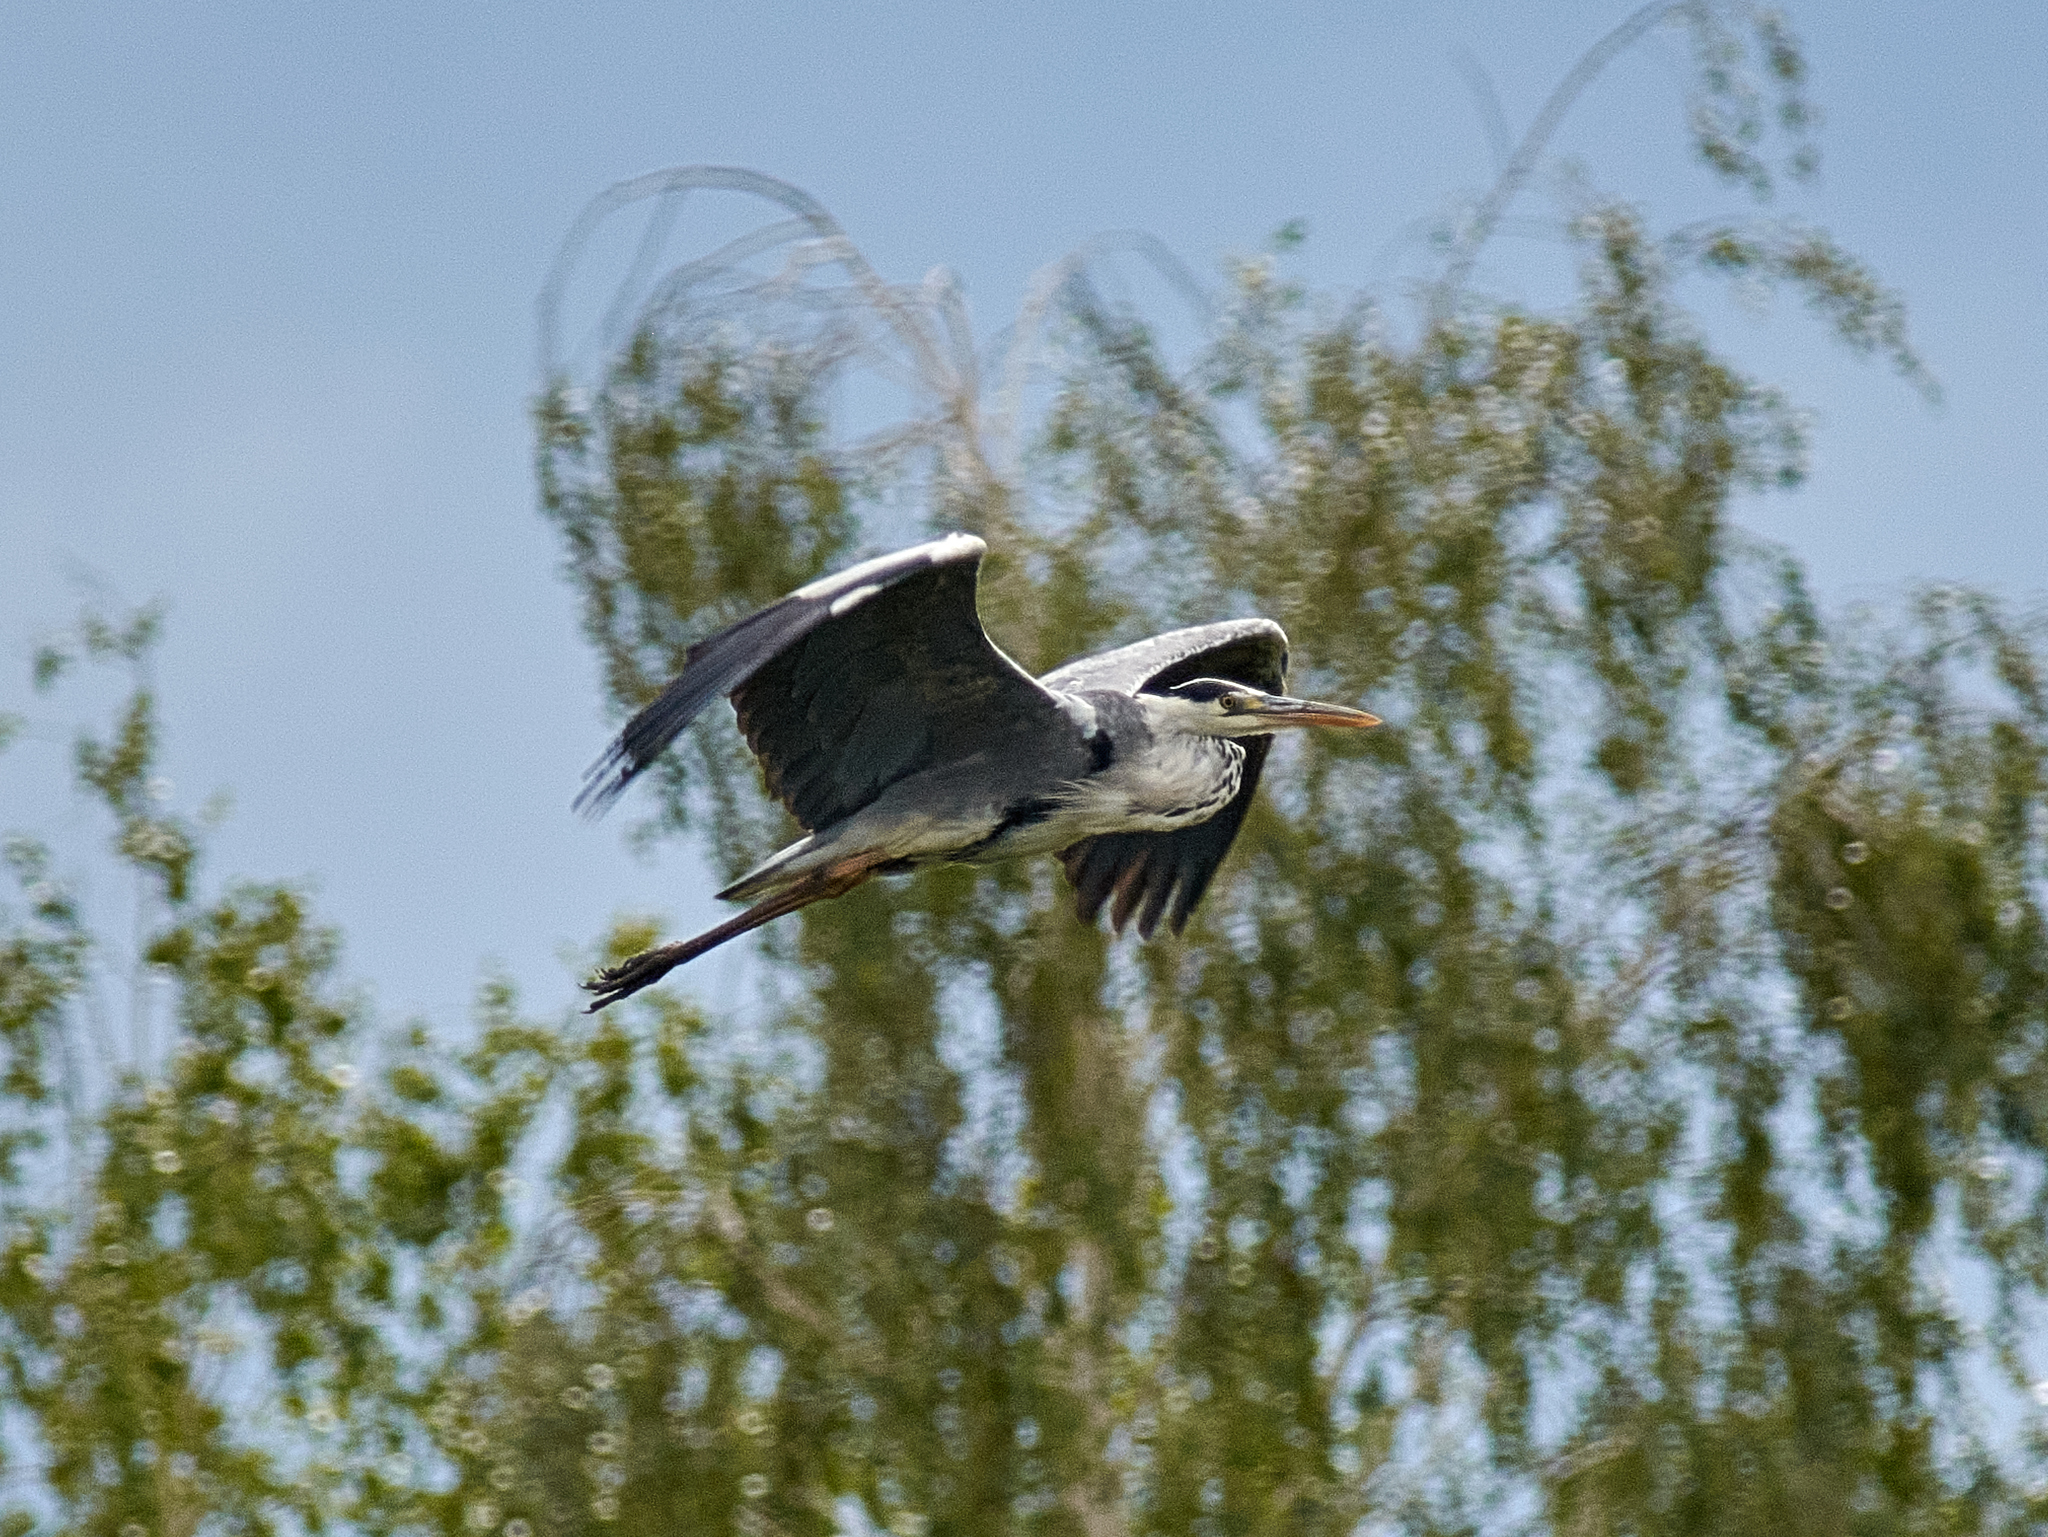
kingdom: Animalia
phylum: Chordata
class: Aves
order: Pelecaniformes
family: Ardeidae
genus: Ardea
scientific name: Ardea cinerea
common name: Grey heron
